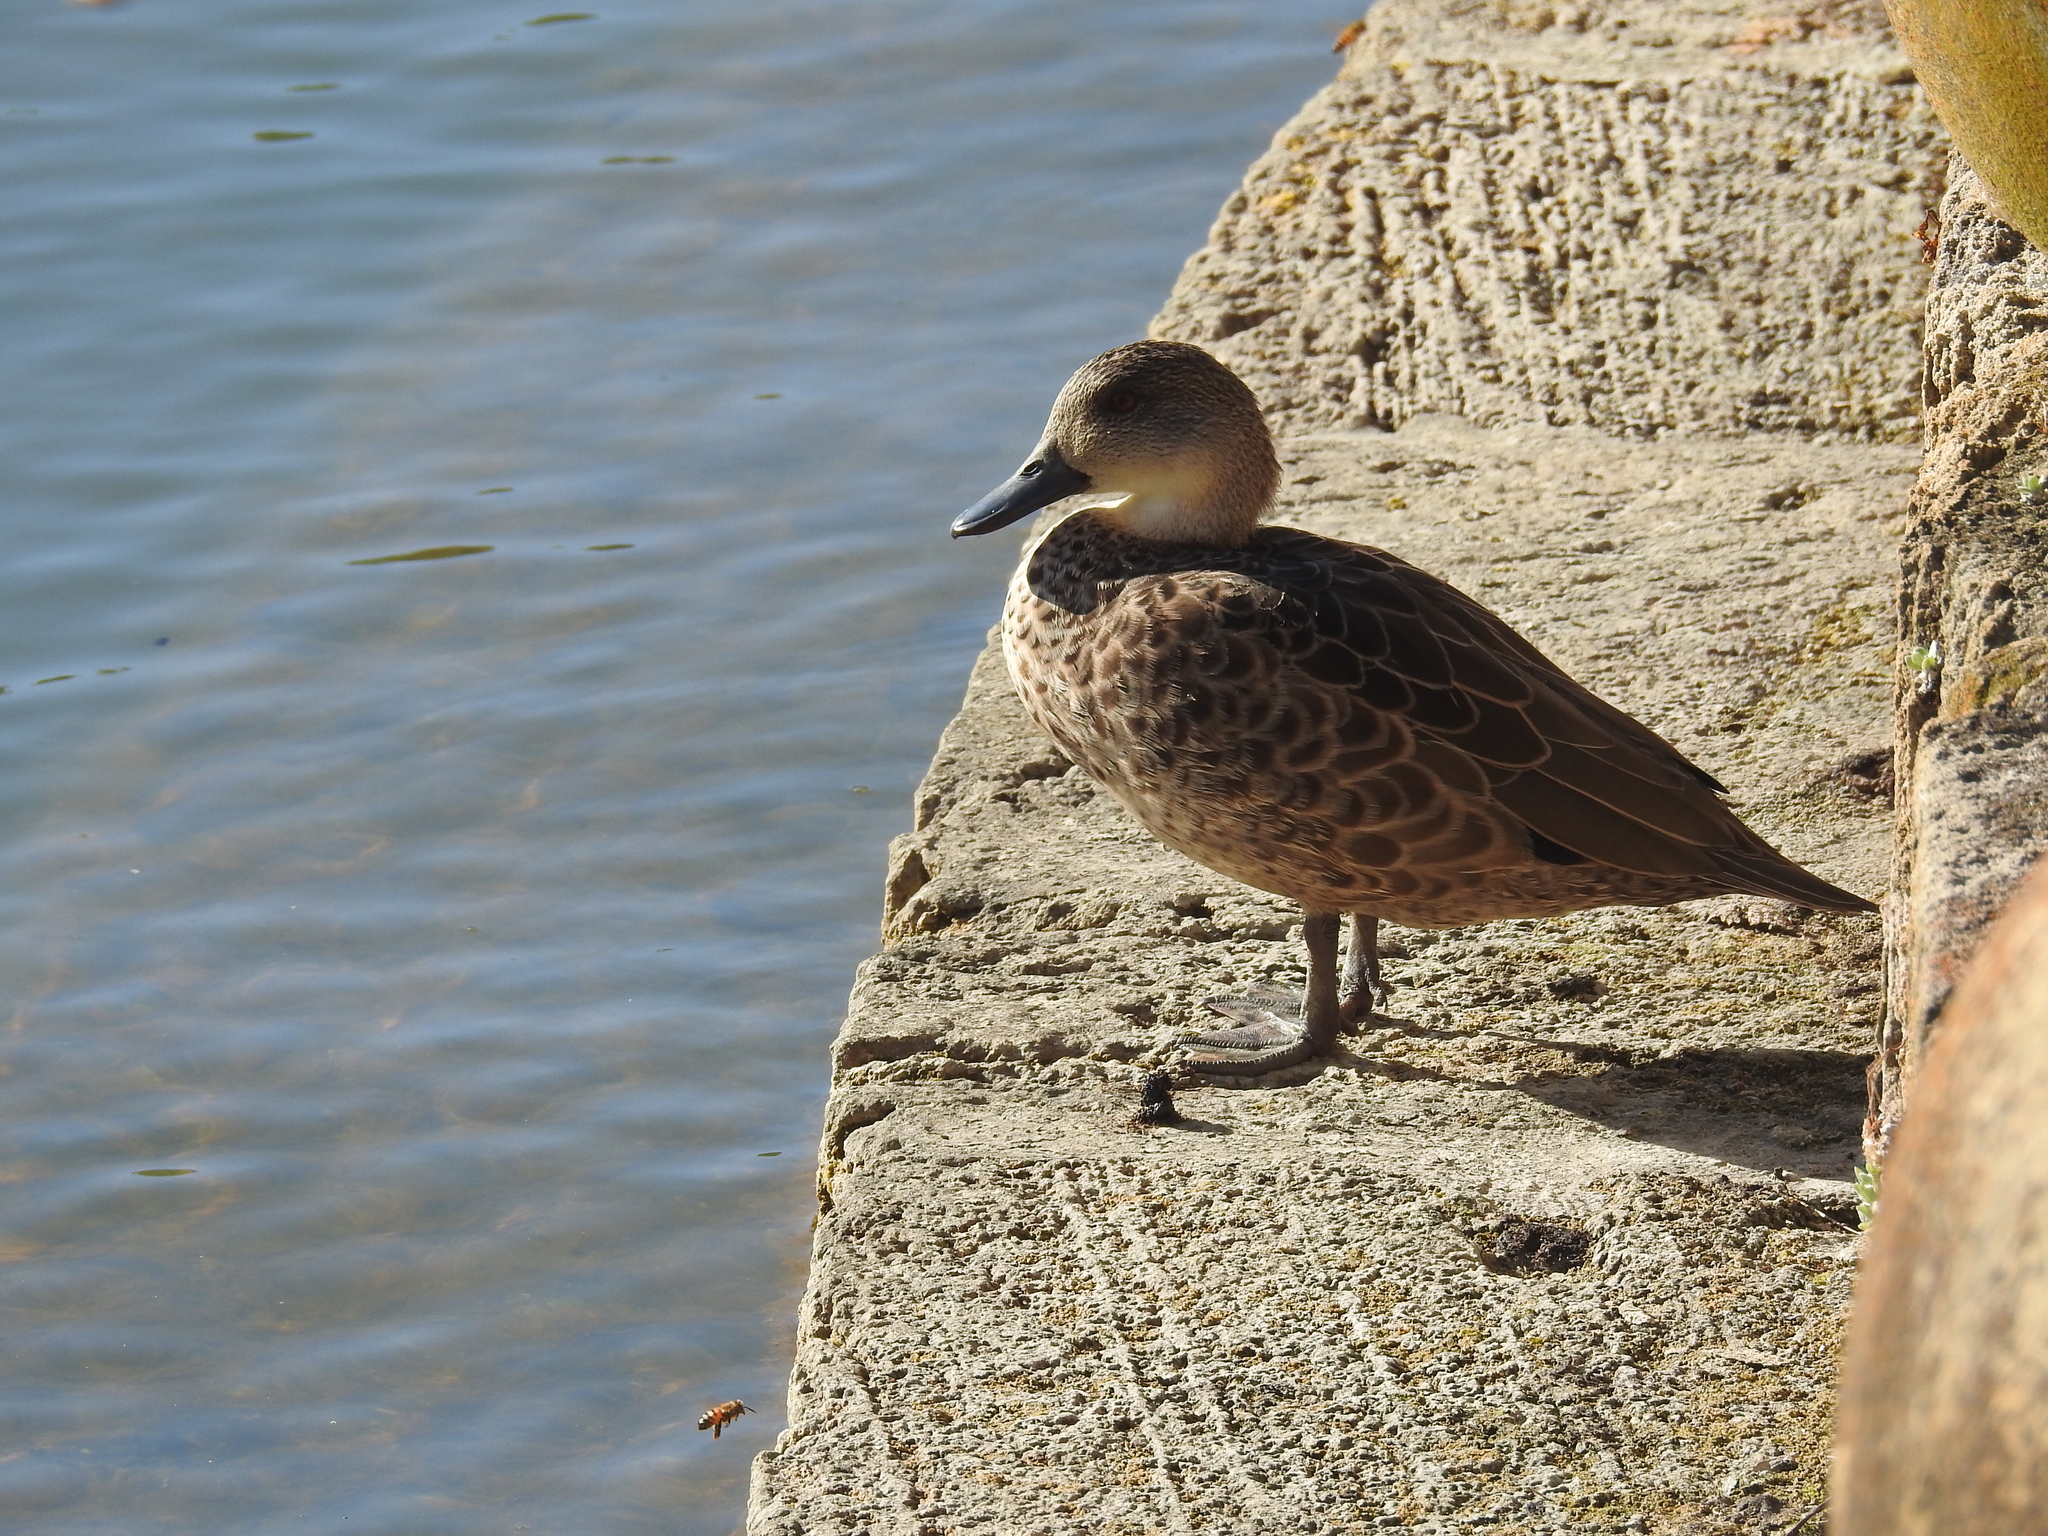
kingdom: Animalia
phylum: Chordata
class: Aves
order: Anseriformes
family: Anatidae
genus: Anas
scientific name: Anas gracilis
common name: Grey teal
